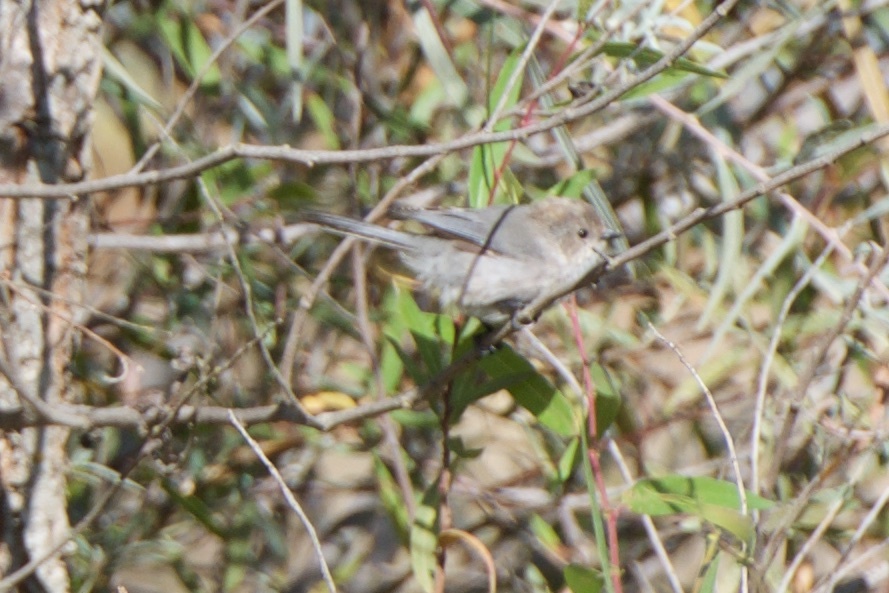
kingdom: Animalia
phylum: Chordata
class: Aves
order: Passeriformes
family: Aegithalidae
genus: Psaltriparus
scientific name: Psaltriparus minimus
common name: American bushtit
